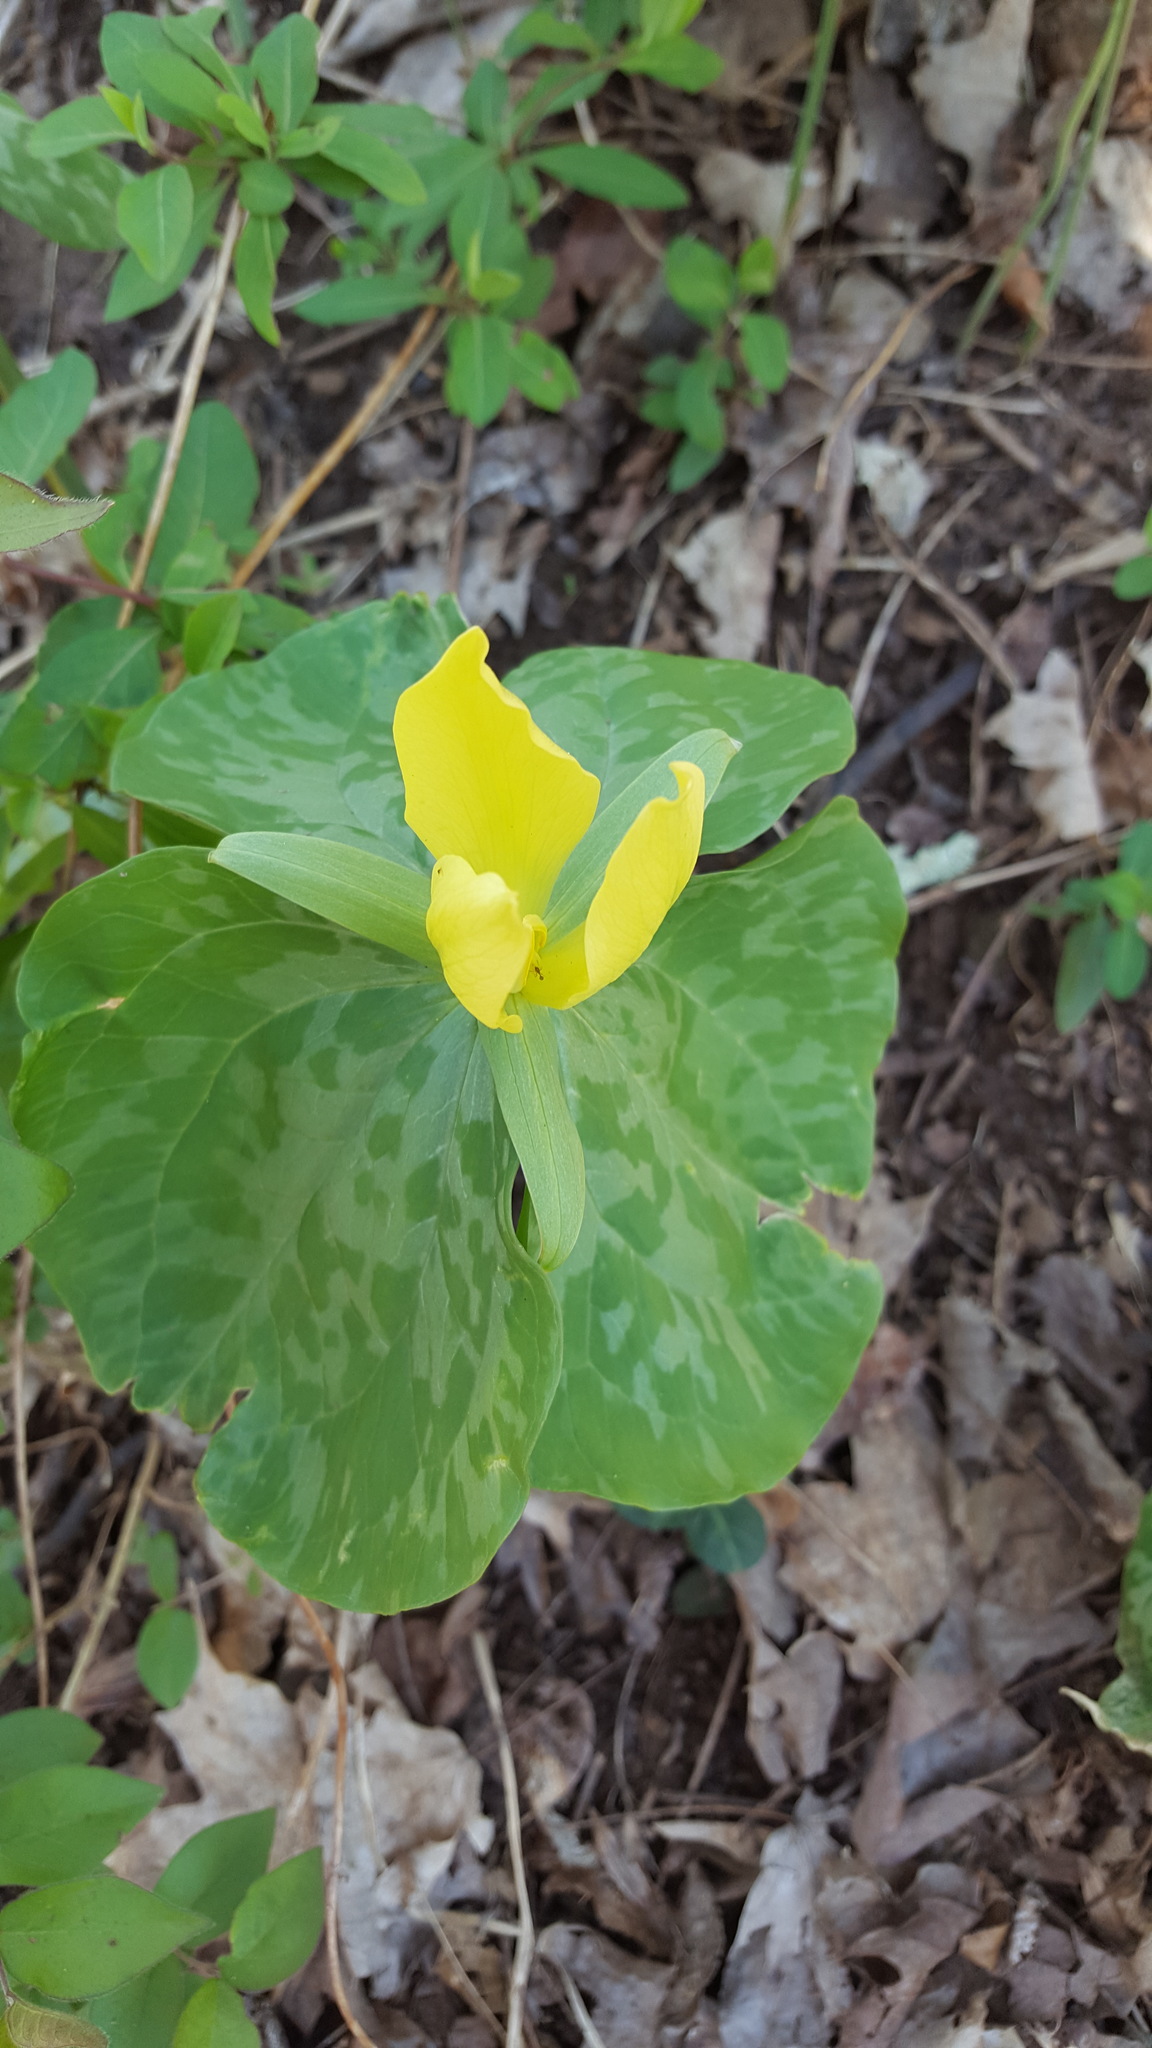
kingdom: Plantae
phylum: Tracheophyta
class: Liliopsida
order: Liliales
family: Melanthiaceae
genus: Trillium
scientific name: Trillium luteum
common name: Wax trillium
